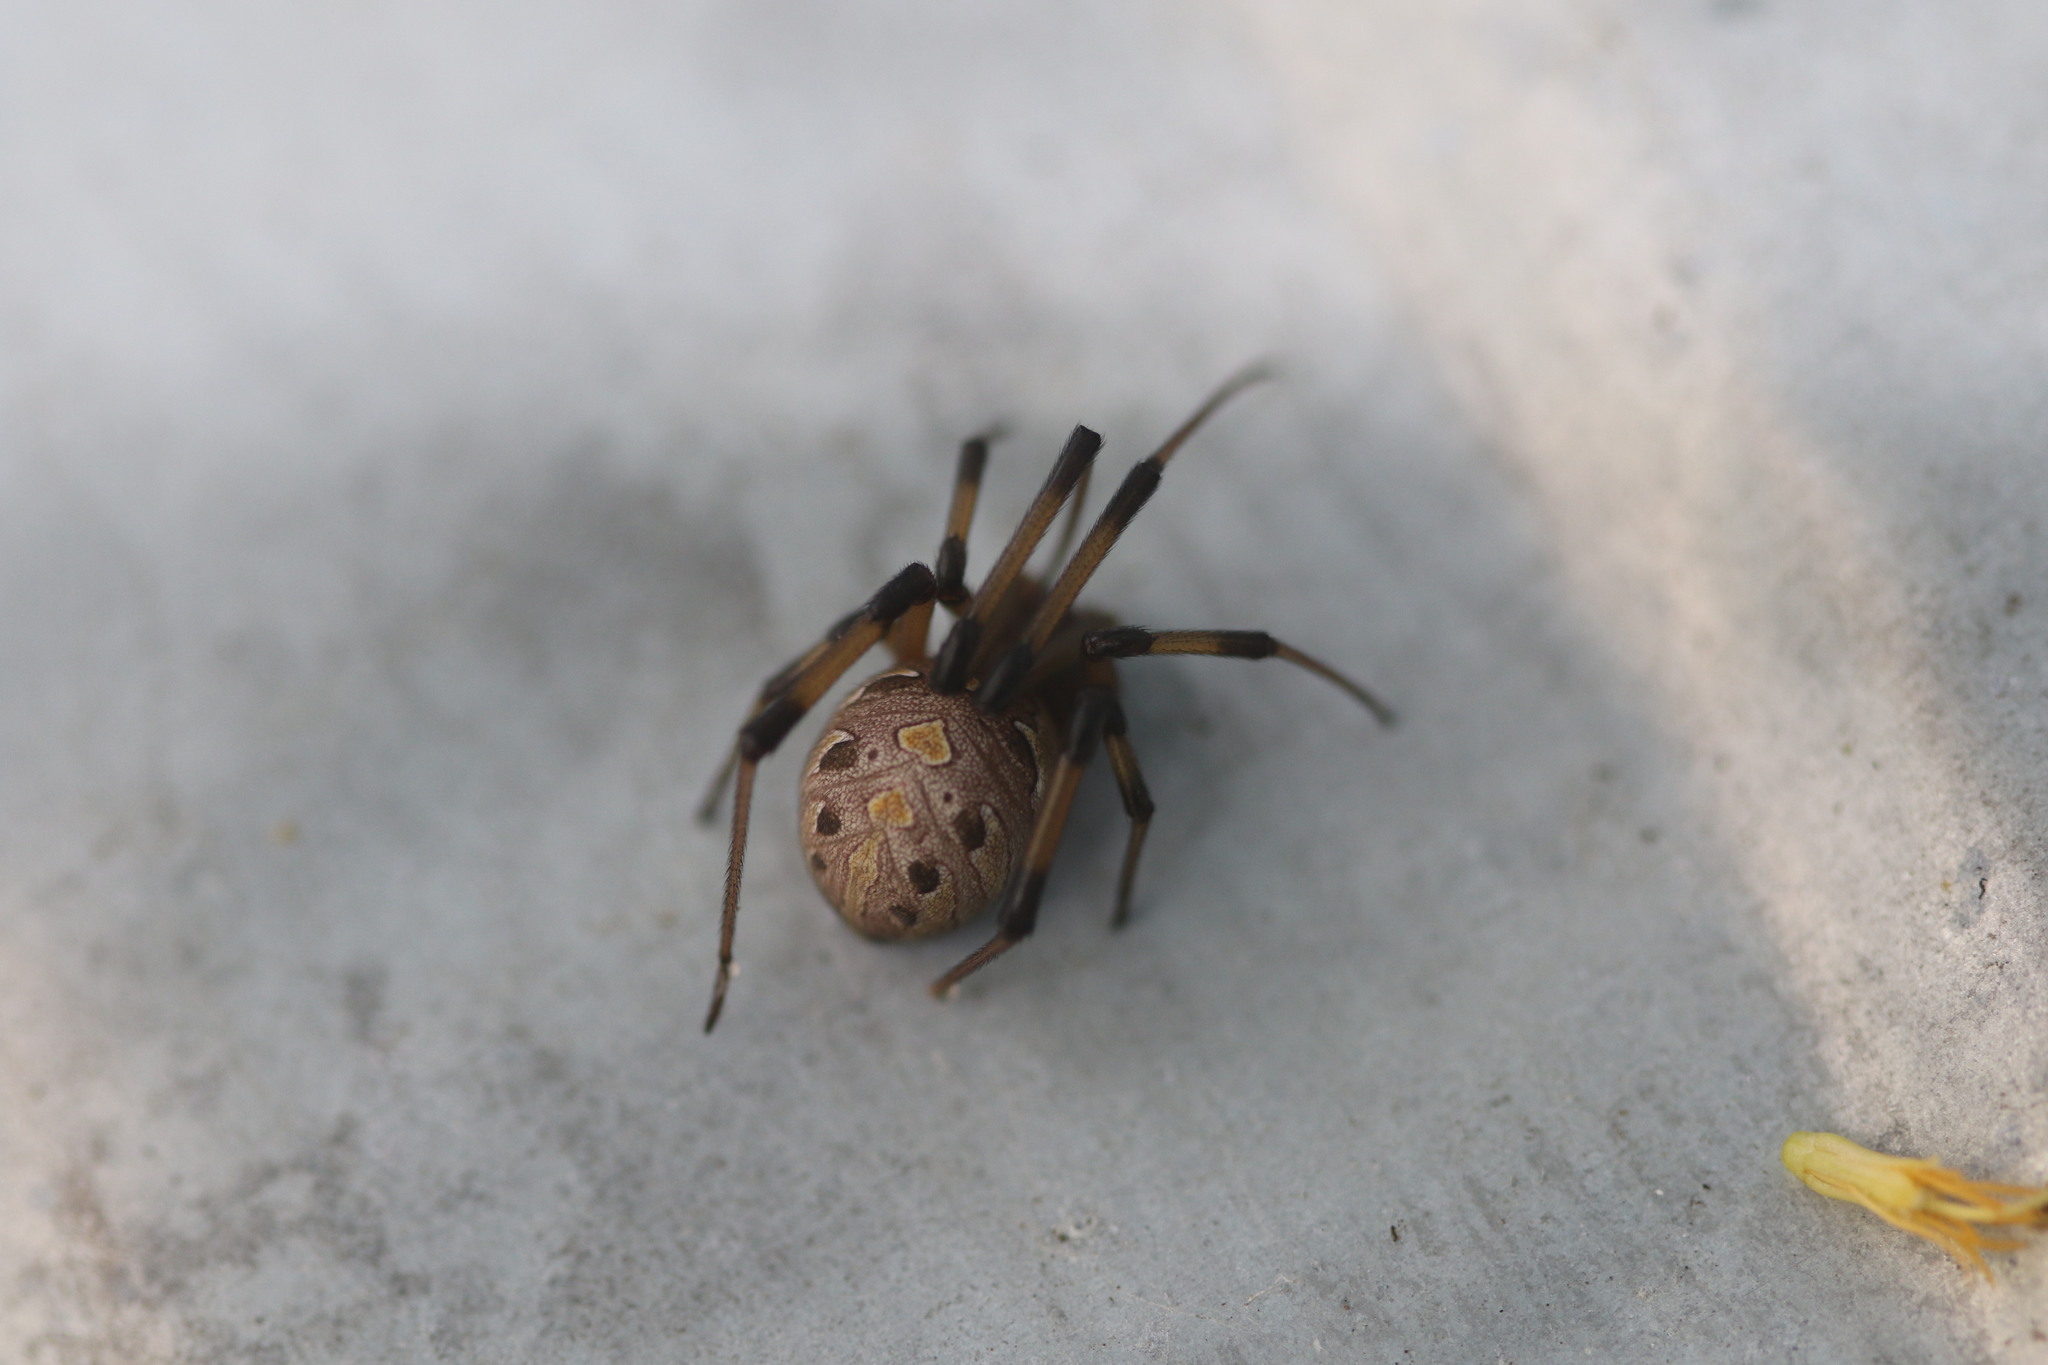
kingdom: Animalia
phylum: Arthropoda
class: Arachnida
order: Araneae
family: Theridiidae
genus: Latrodectus
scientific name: Latrodectus geometricus
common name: Brown widow spider
